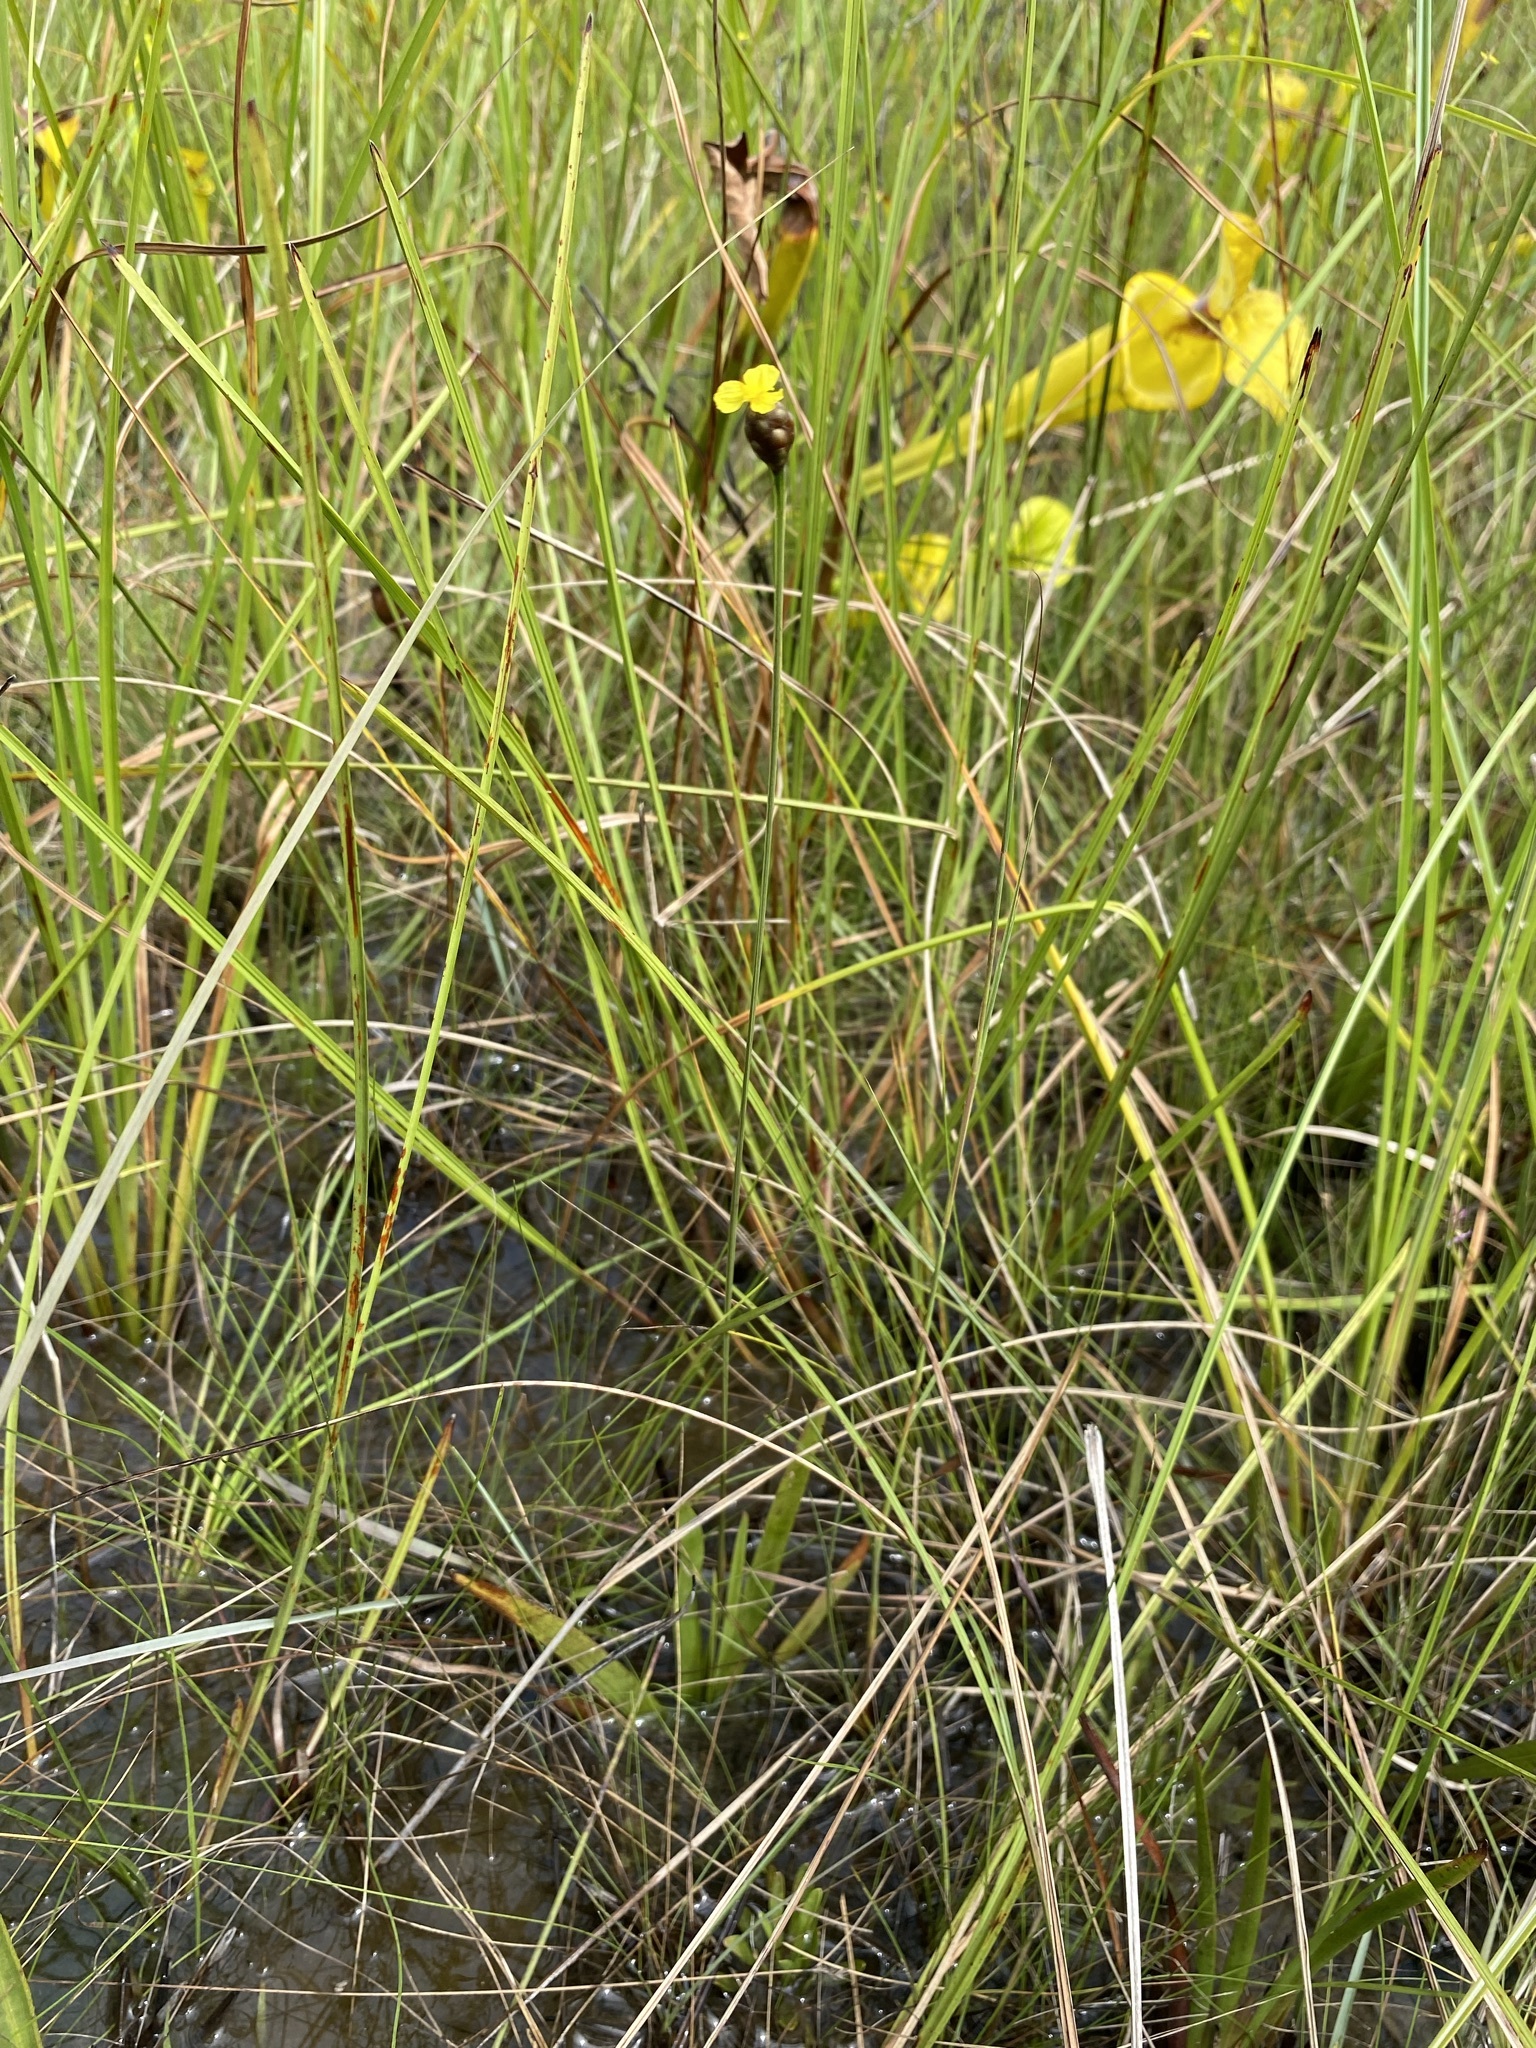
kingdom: Plantae
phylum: Tracheophyta
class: Liliopsida
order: Poales
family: Xyridaceae
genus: Xyris
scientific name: Xyris serotina
